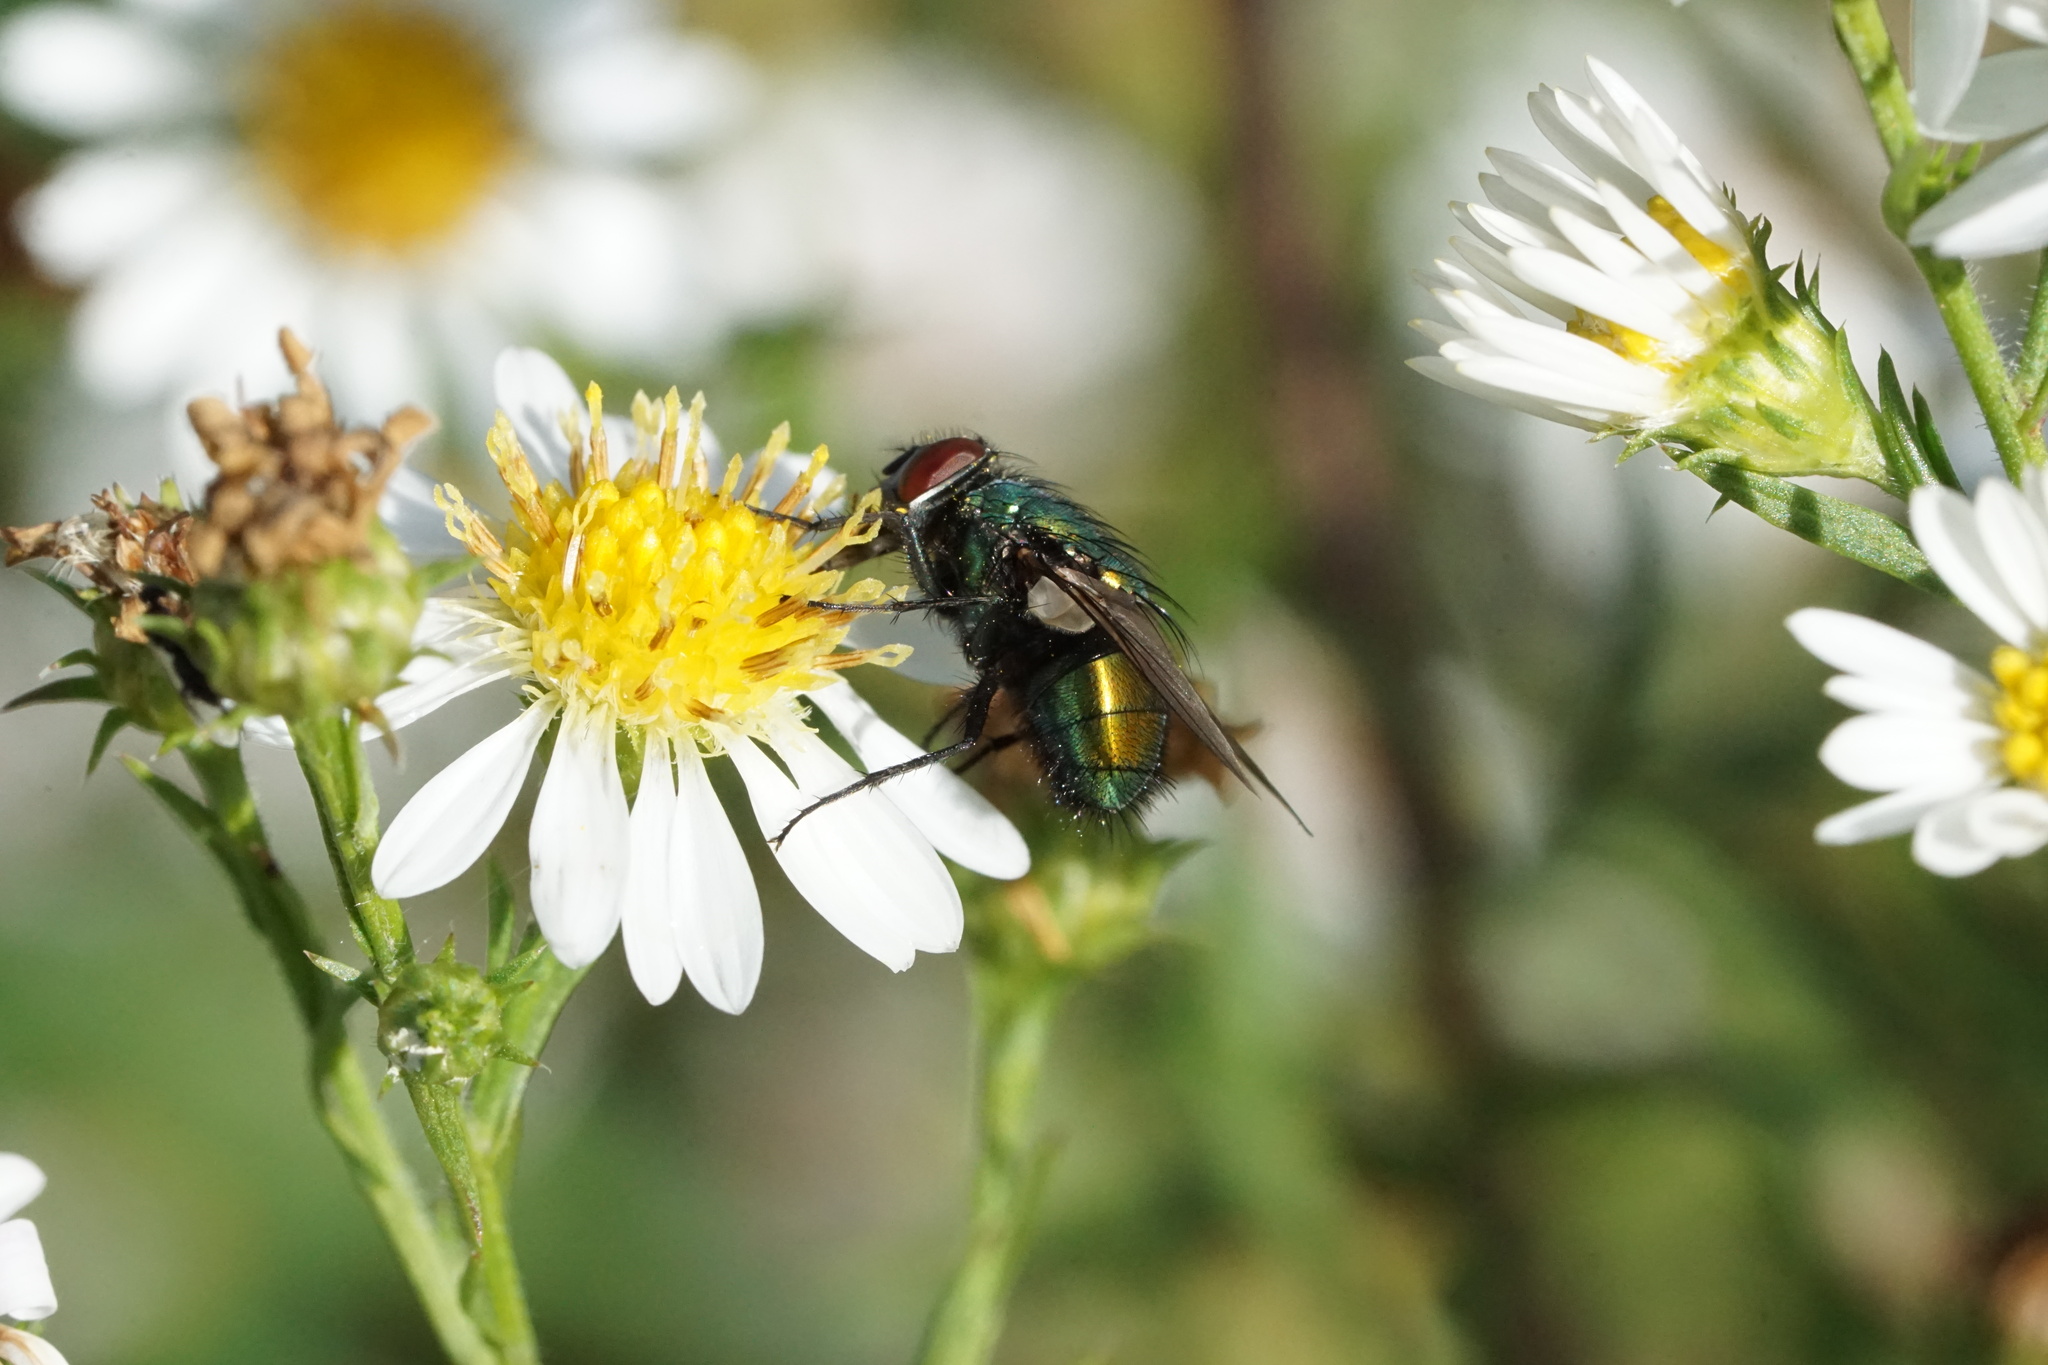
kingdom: Animalia
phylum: Arthropoda
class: Insecta
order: Diptera
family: Calliphoridae
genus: Lucilia
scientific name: Lucilia sericata
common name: Blow fly
